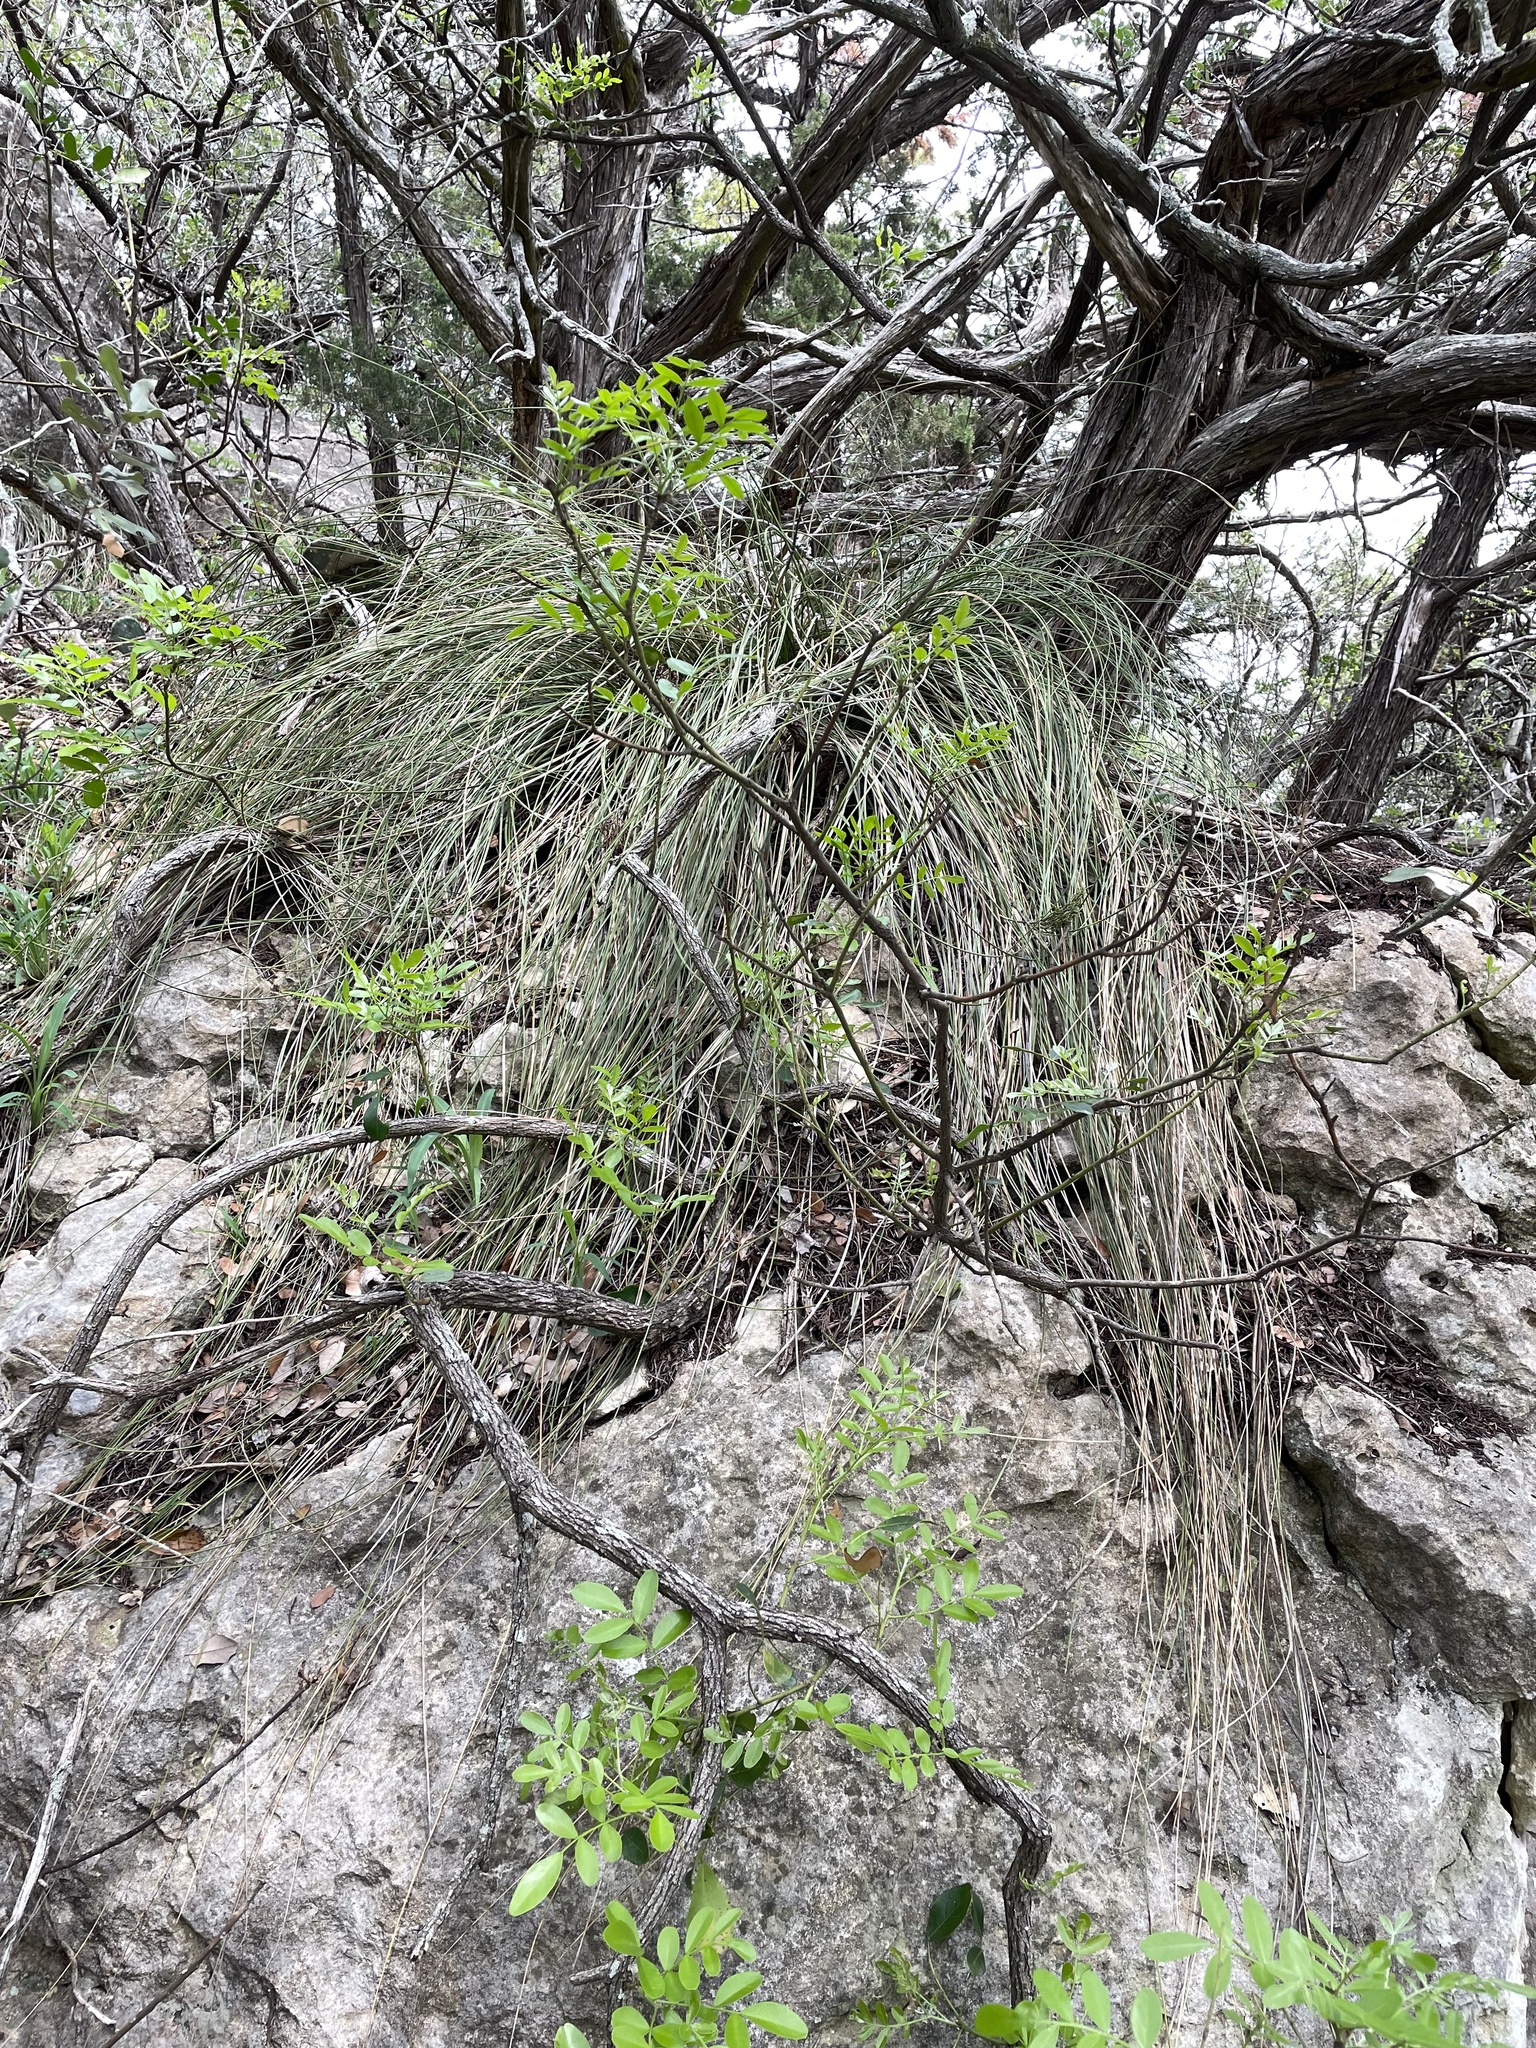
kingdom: Plantae
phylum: Tracheophyta
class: Liliopsida
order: Asparagales
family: Asparagaceae
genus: Nolina
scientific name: Nolina texana
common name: Texas sacahuiste
